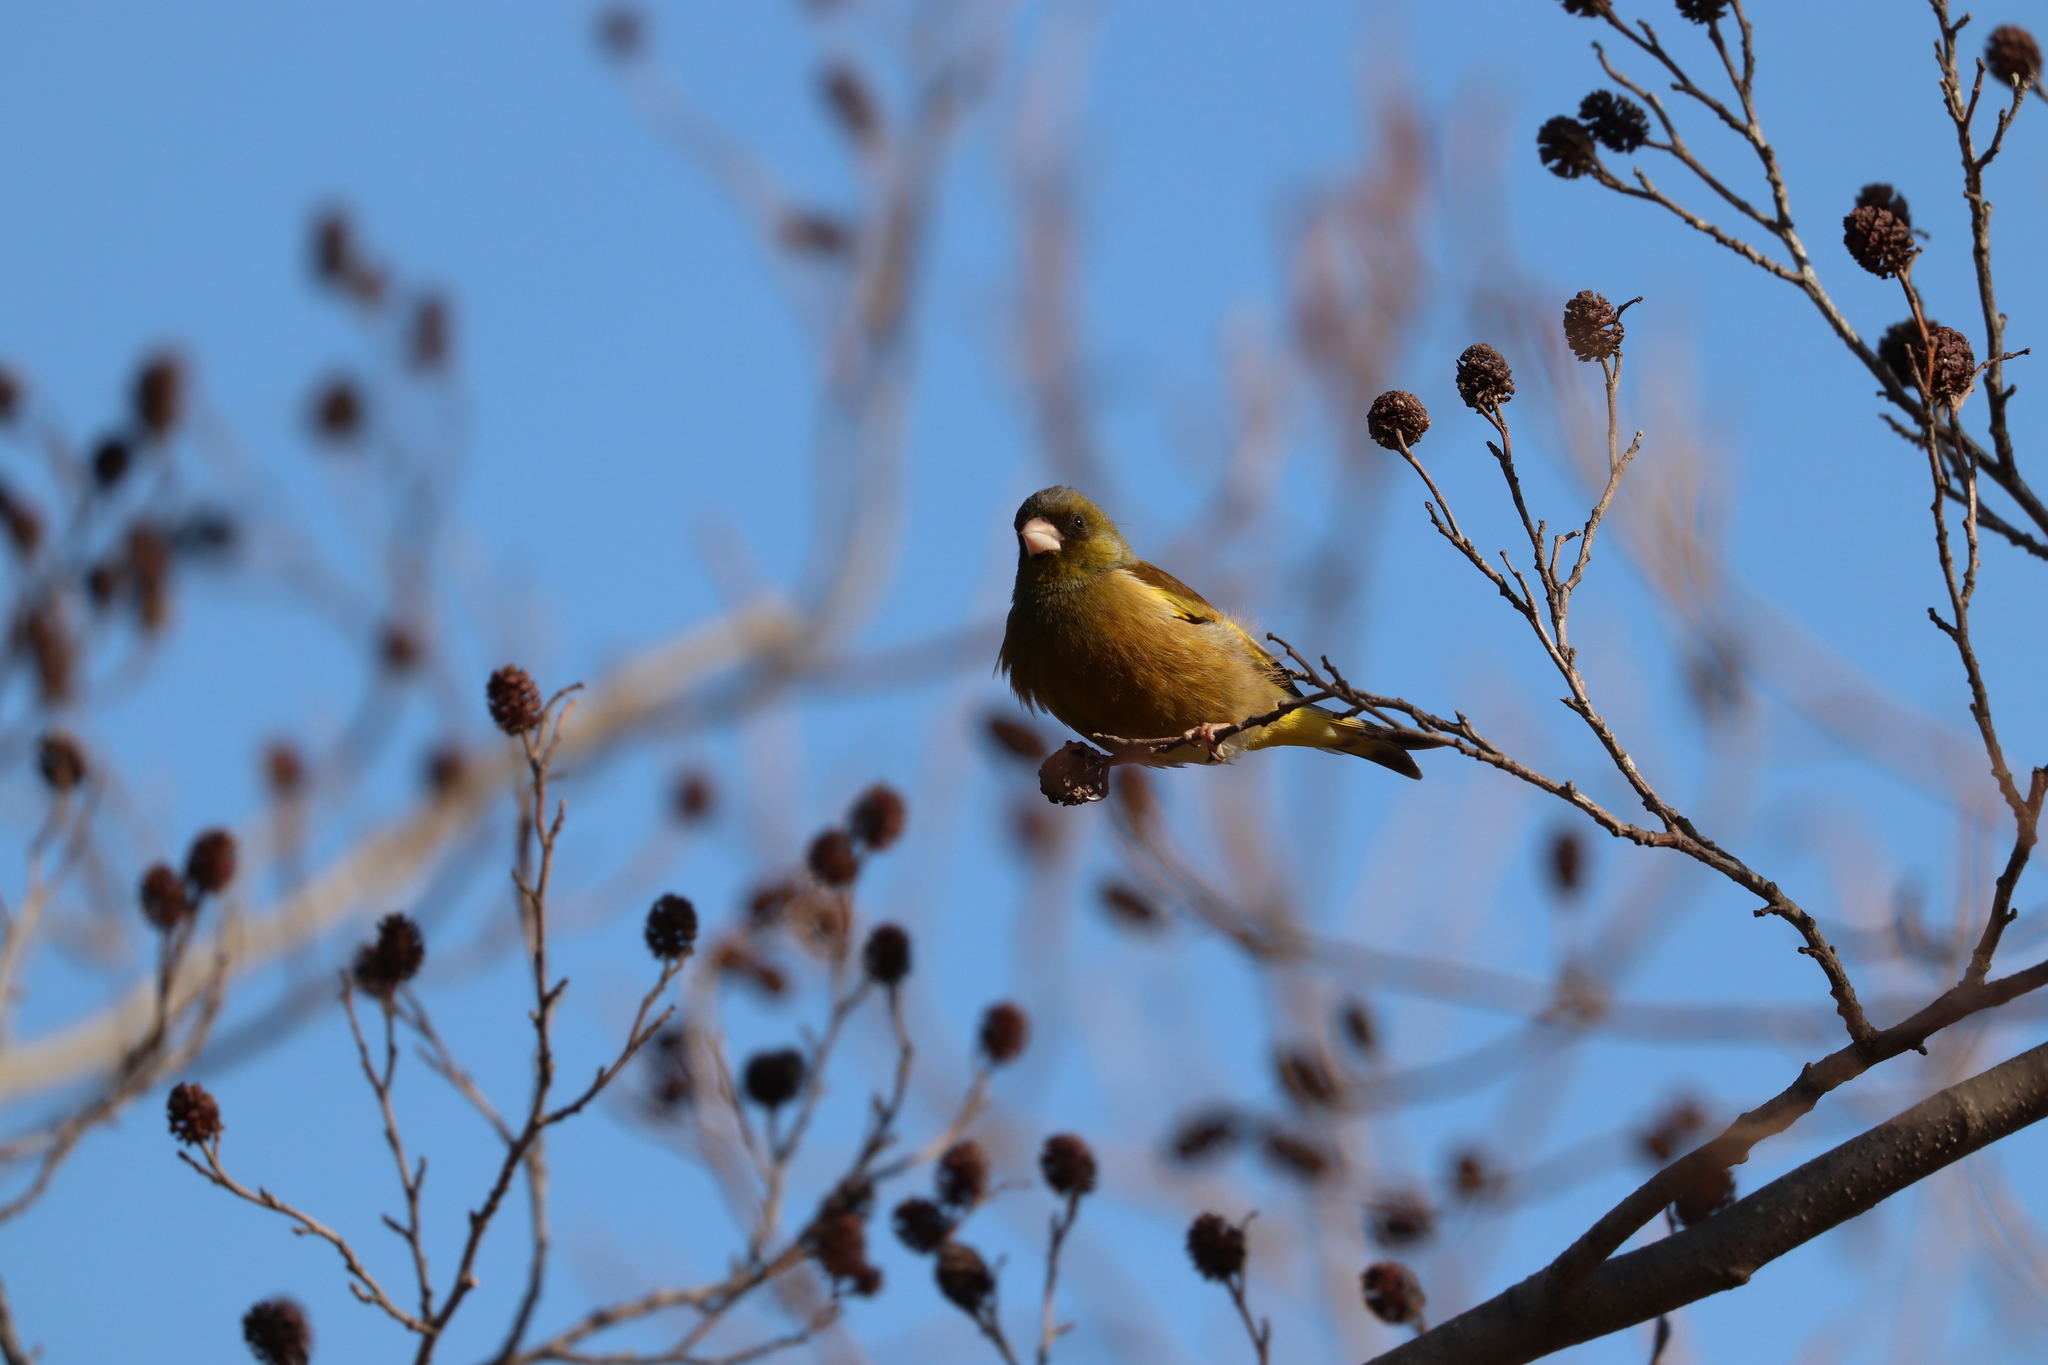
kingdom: Plantae
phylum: Tracheophyta
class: Liliopsida
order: Poales
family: Poaceae
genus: Chloris
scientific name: Chloris sinica
